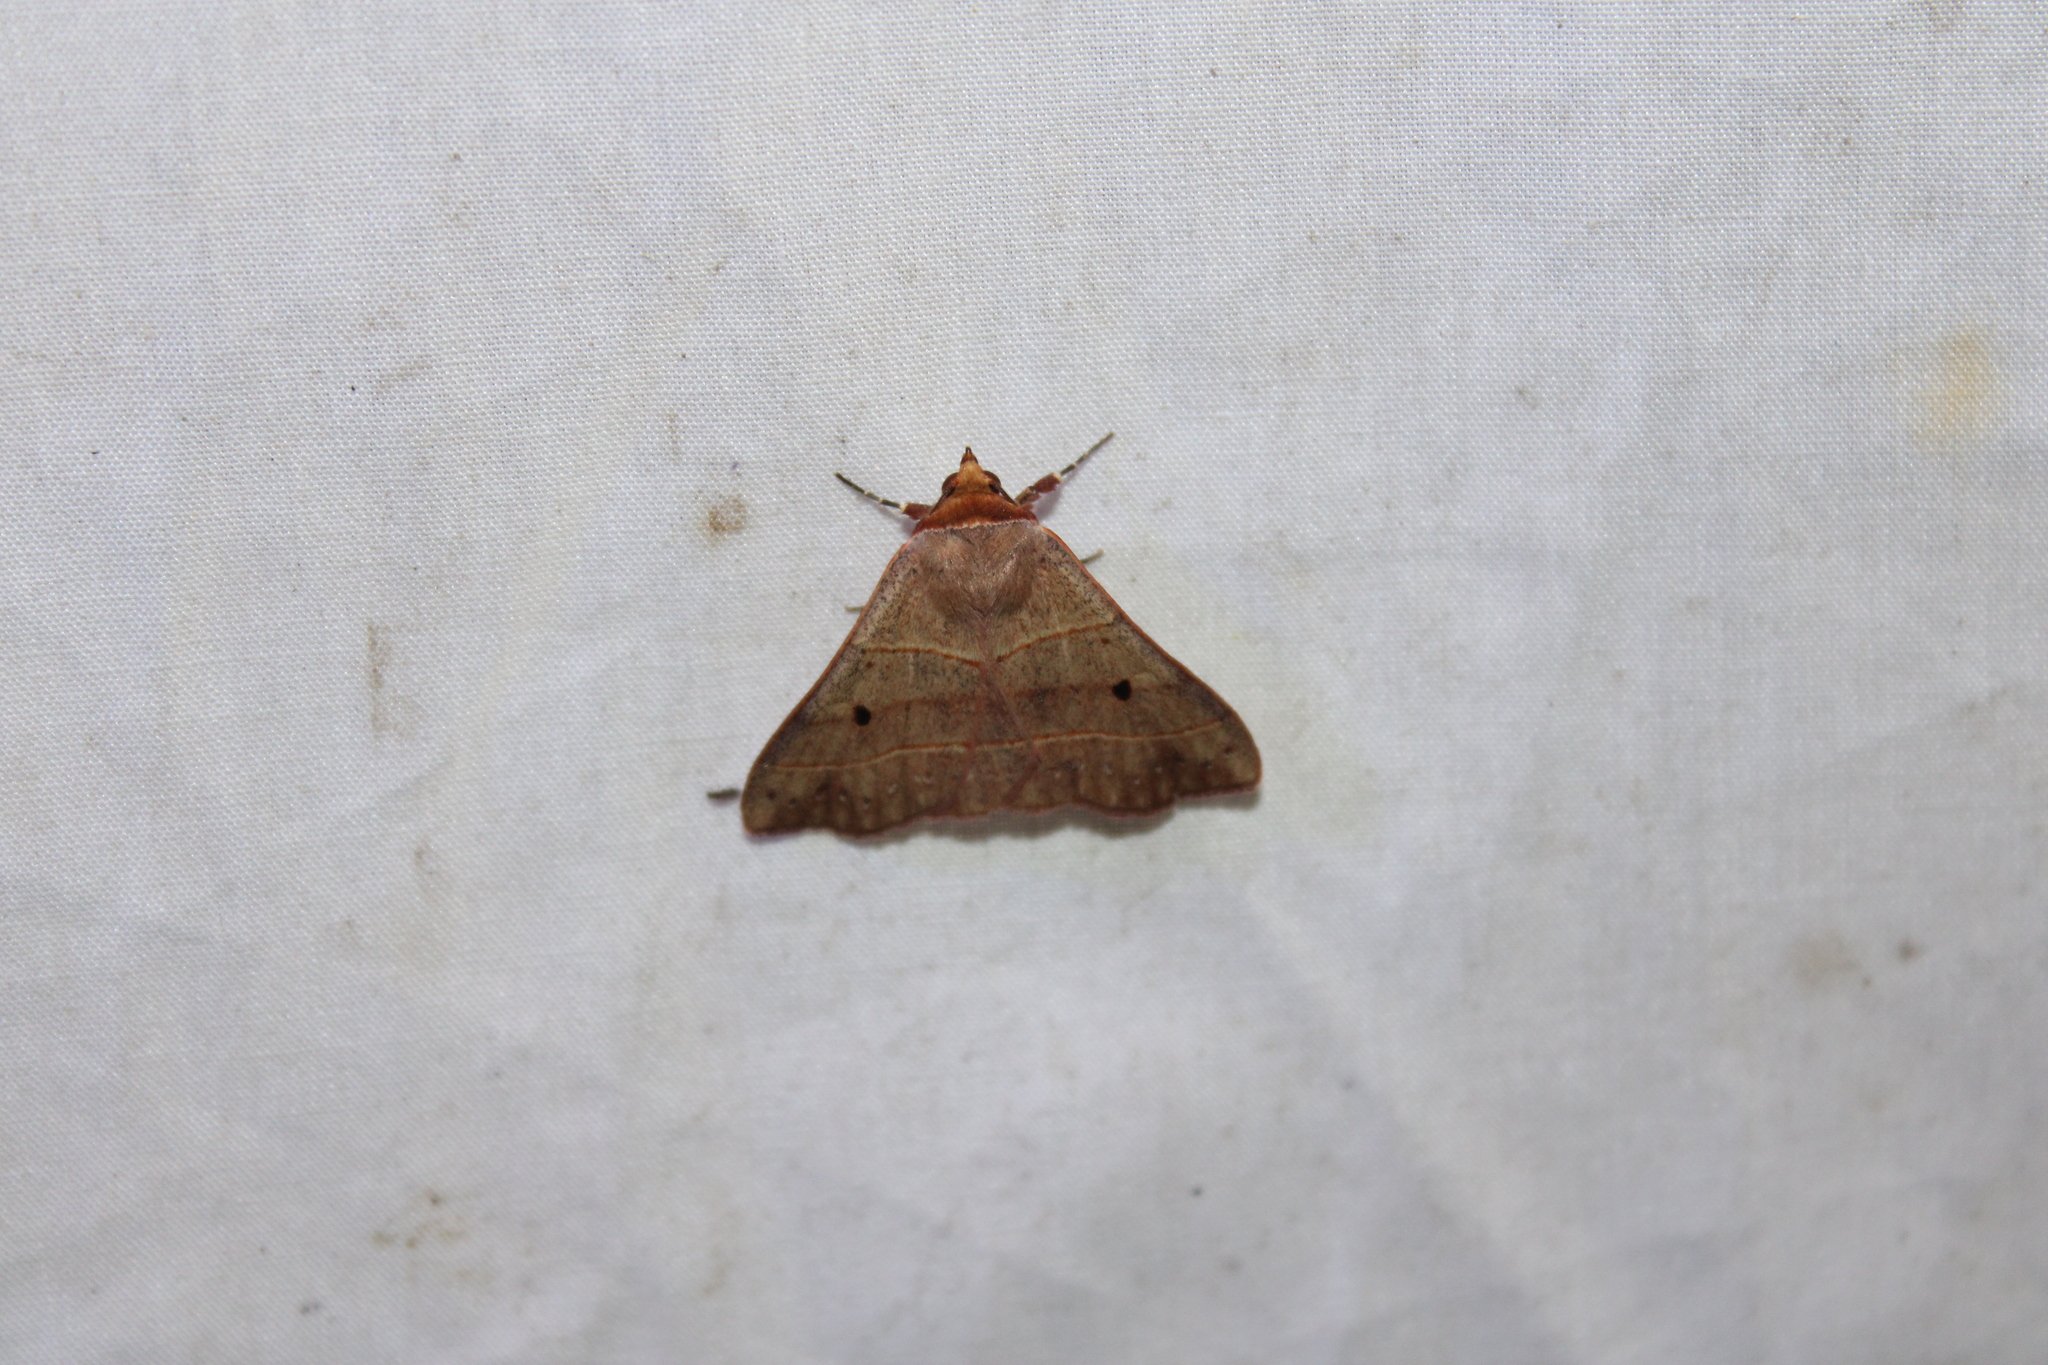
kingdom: Animalia
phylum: Arthropoda
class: Insecta
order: Lepidoptera
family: Erebidae
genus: Panopoda
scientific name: Panopoda rufimargo
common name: Red-lined panopoda moth
